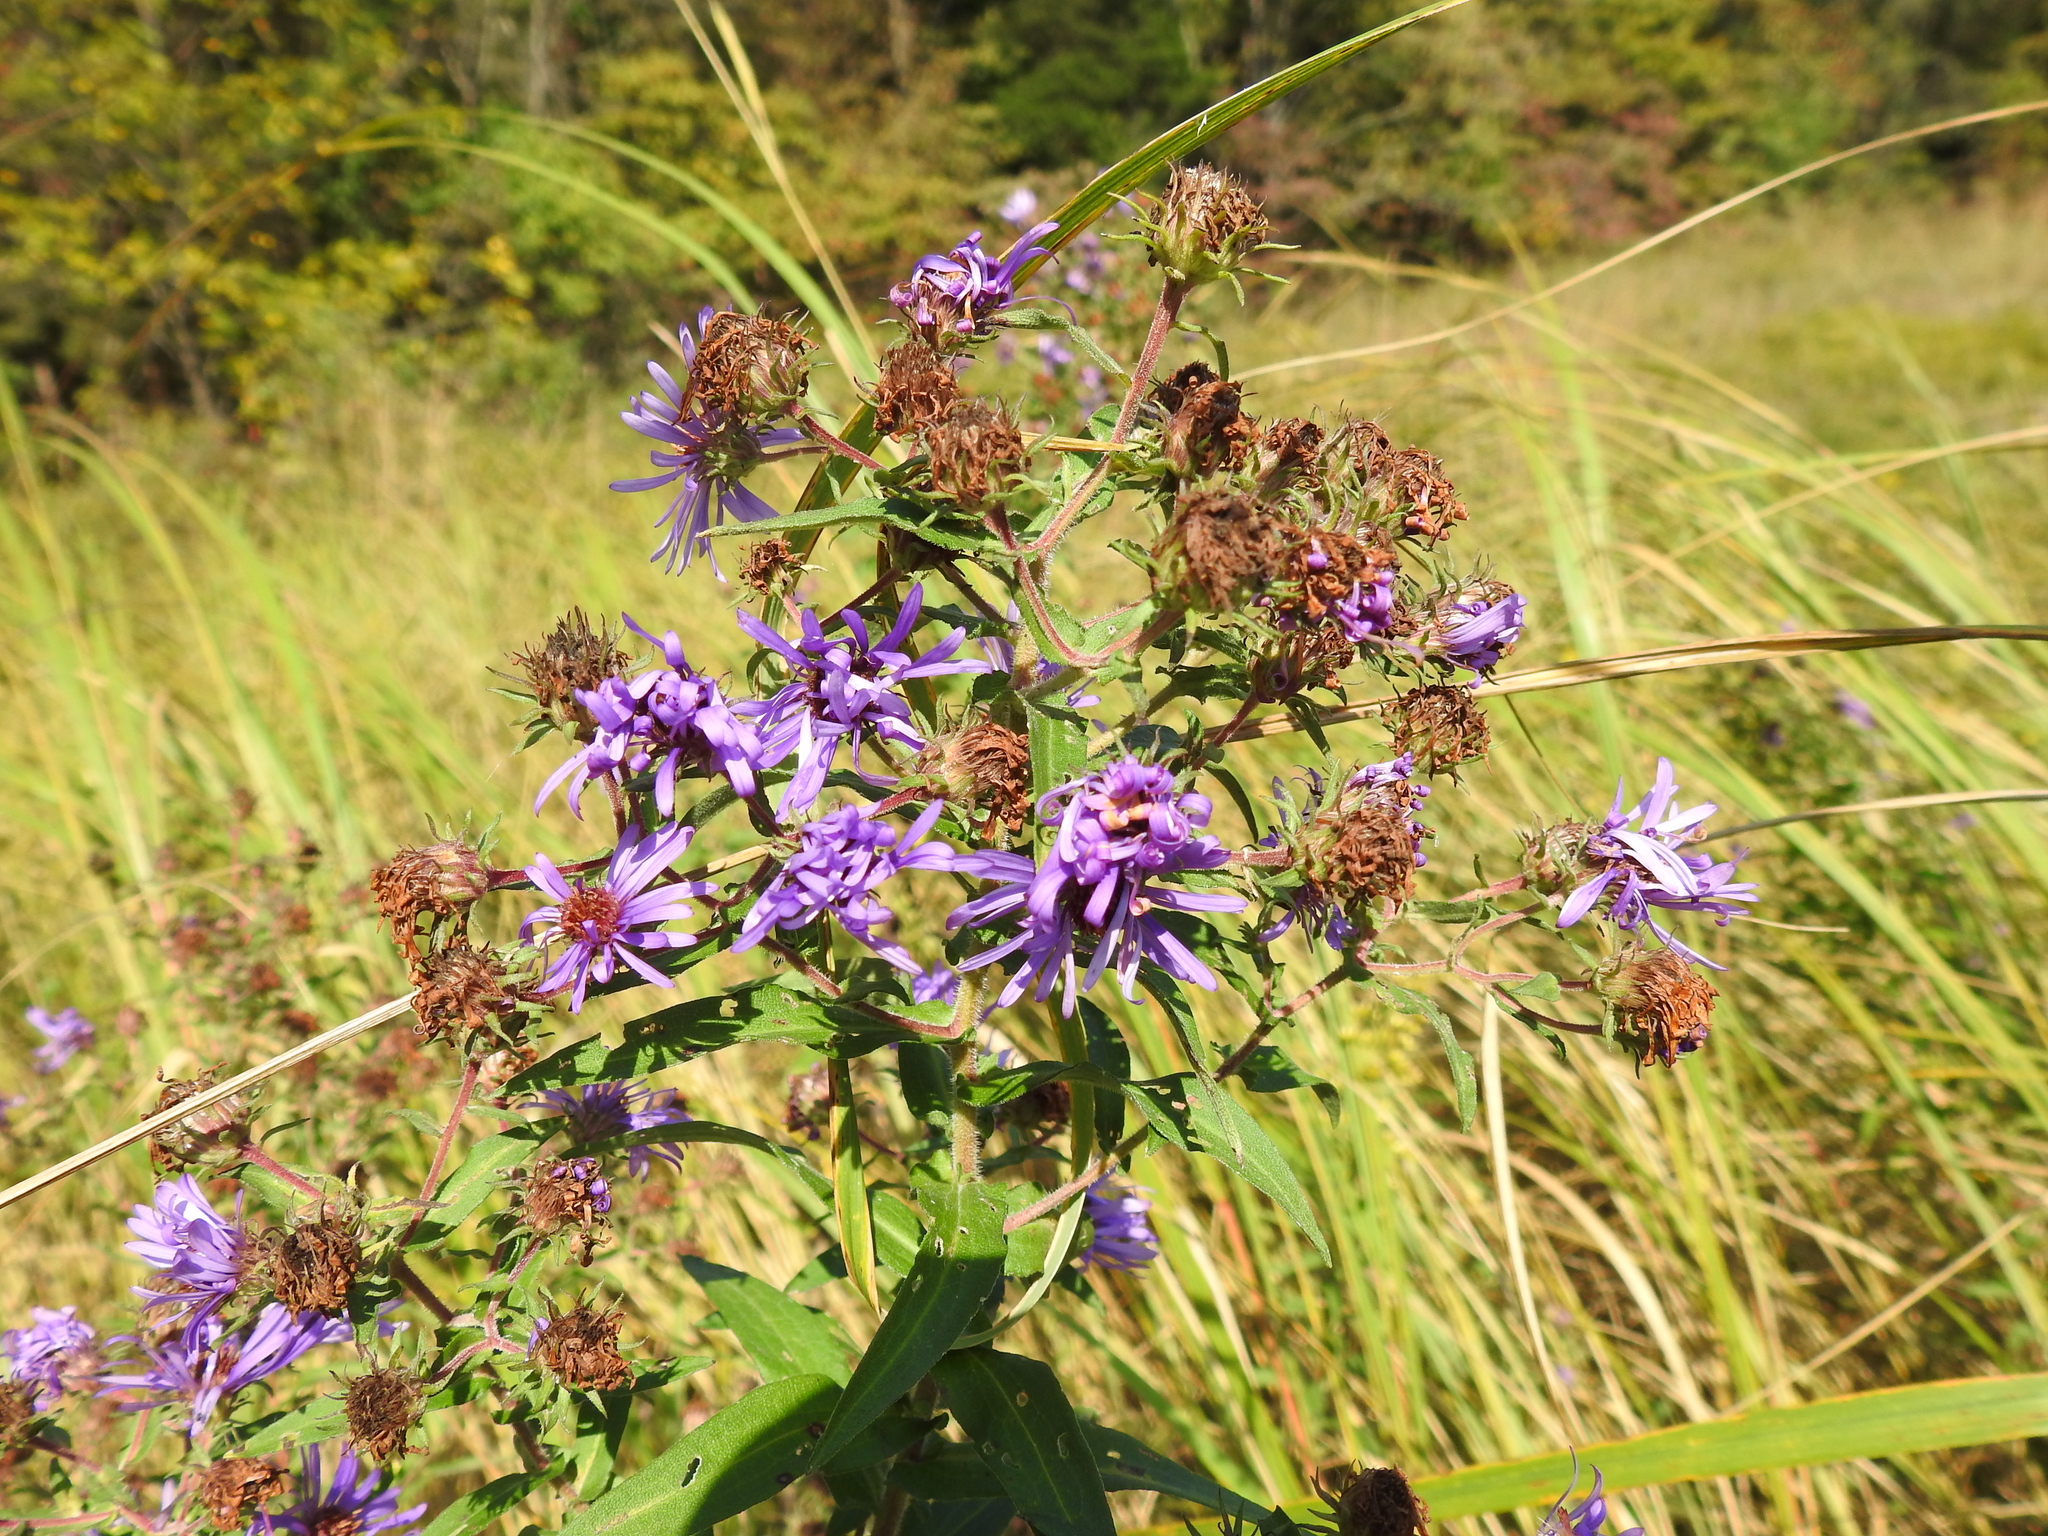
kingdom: Plantae
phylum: Tracheophyta
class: Magnoliopsida
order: Asterales
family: Asteraceae
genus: Symphyotrichum
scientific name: Symphyotrichum novae-angliae
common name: Michaelmas daisy
